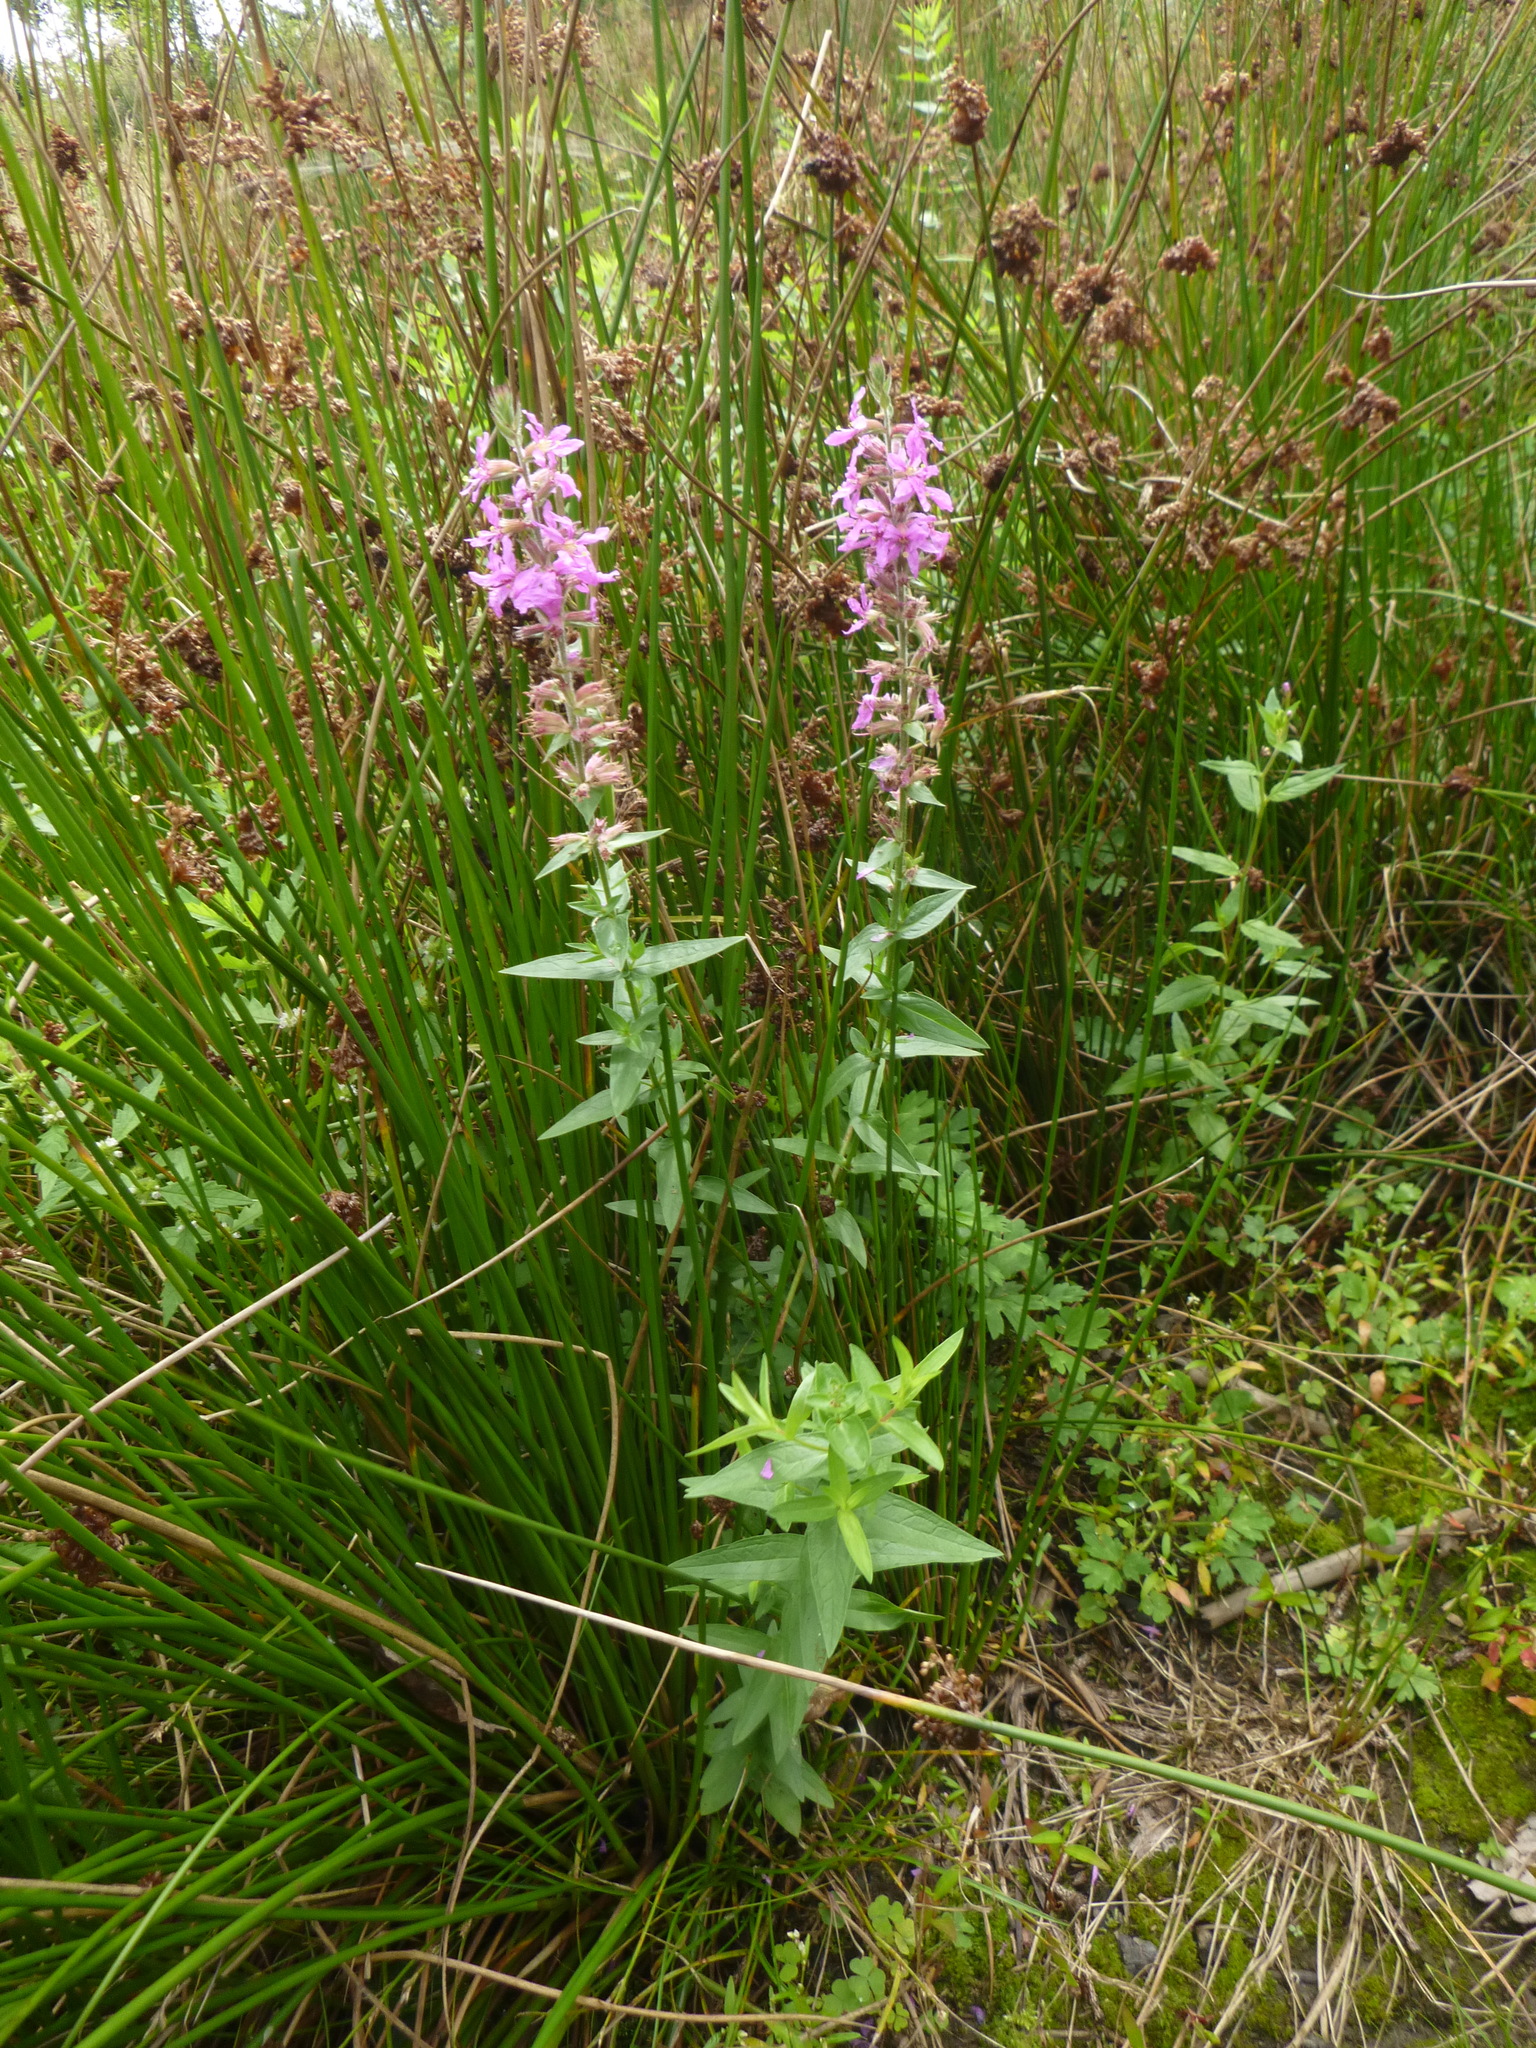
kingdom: Plantae
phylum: Tracheophyta
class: Magnoliopsida
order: Myrtales
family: Lythraceae
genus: Lythrum
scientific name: Lythrum salicaria
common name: Purple loosestrife
